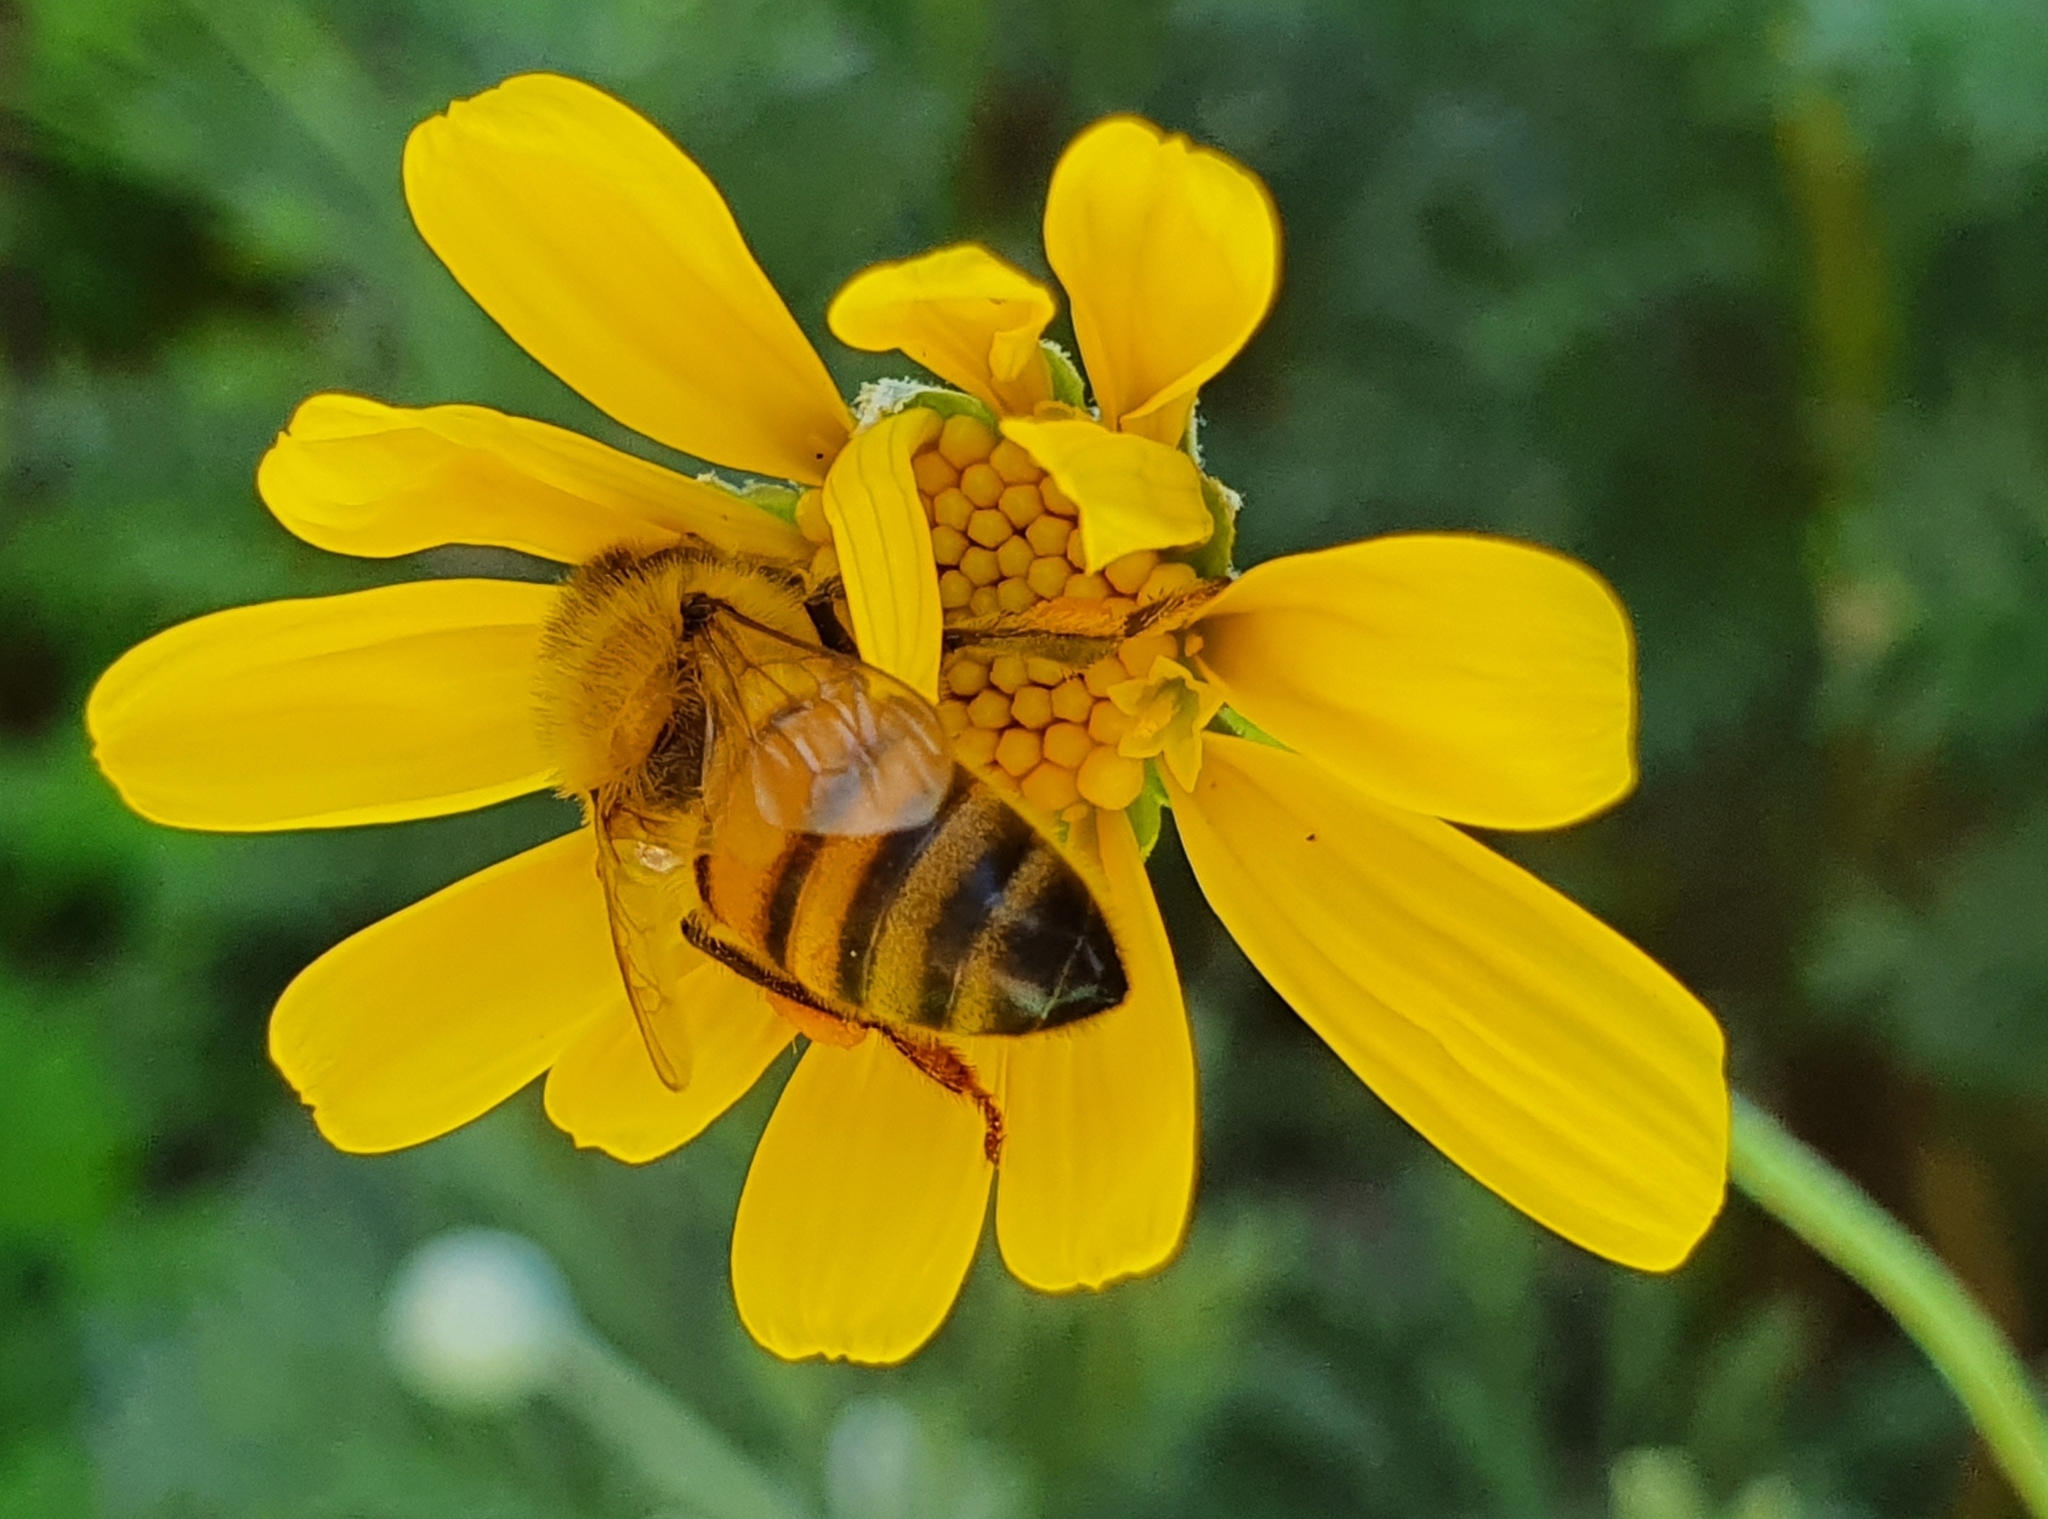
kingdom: Animalia
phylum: Arthropoda
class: Insecta
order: Hymenoptera
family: Apidae
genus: Apis
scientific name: Apis mellifera
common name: Honey bee
